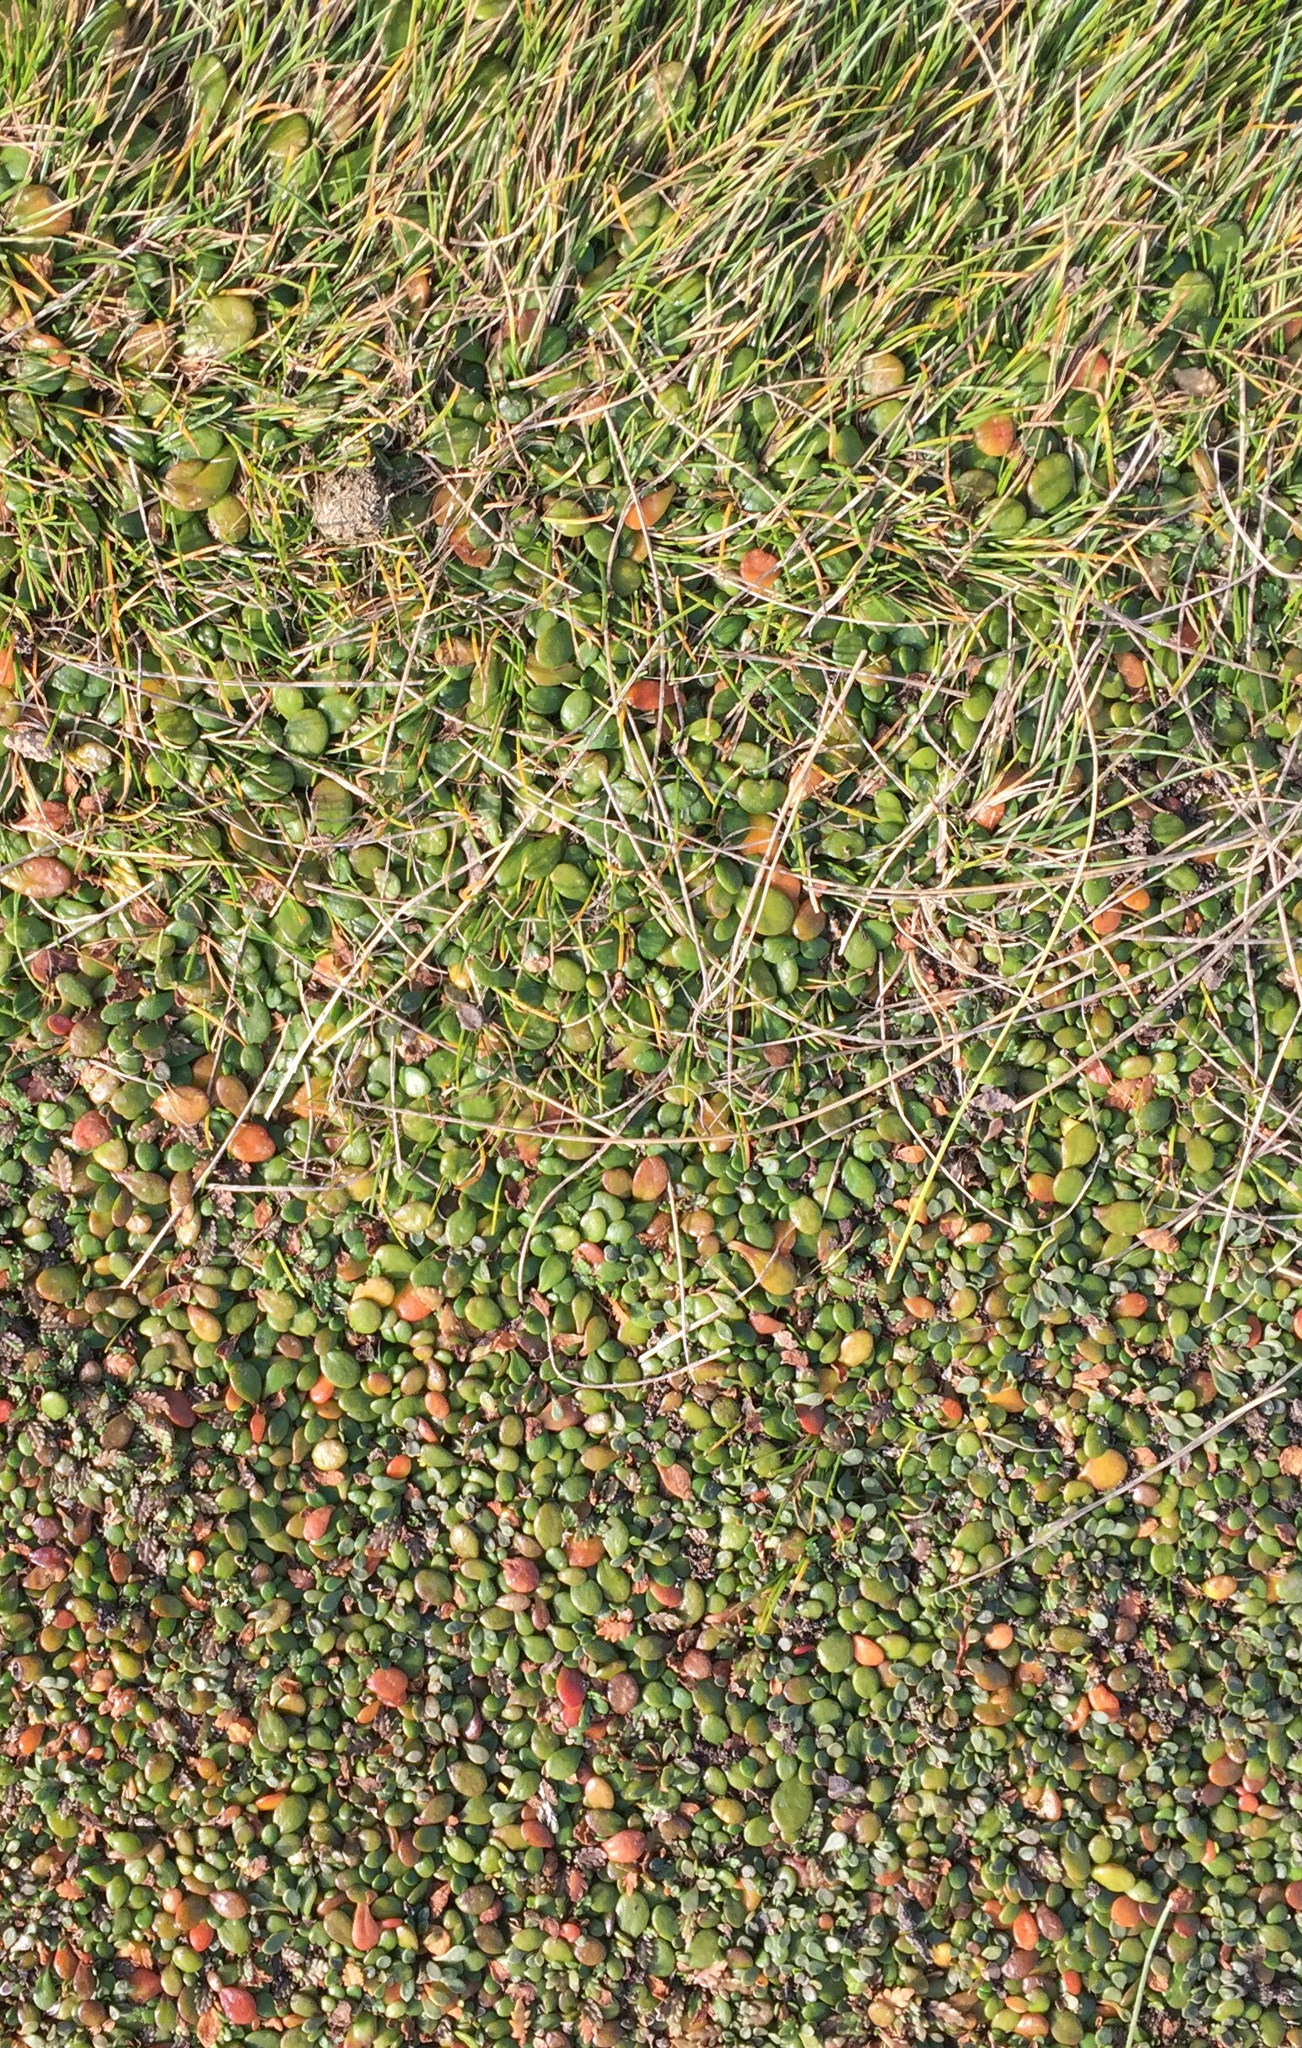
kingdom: Plantae
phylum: Tracheophyta
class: Magnoliopsida
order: Asterales
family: Goodeniaceae
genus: Goodenia
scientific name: Goodenia radicans
